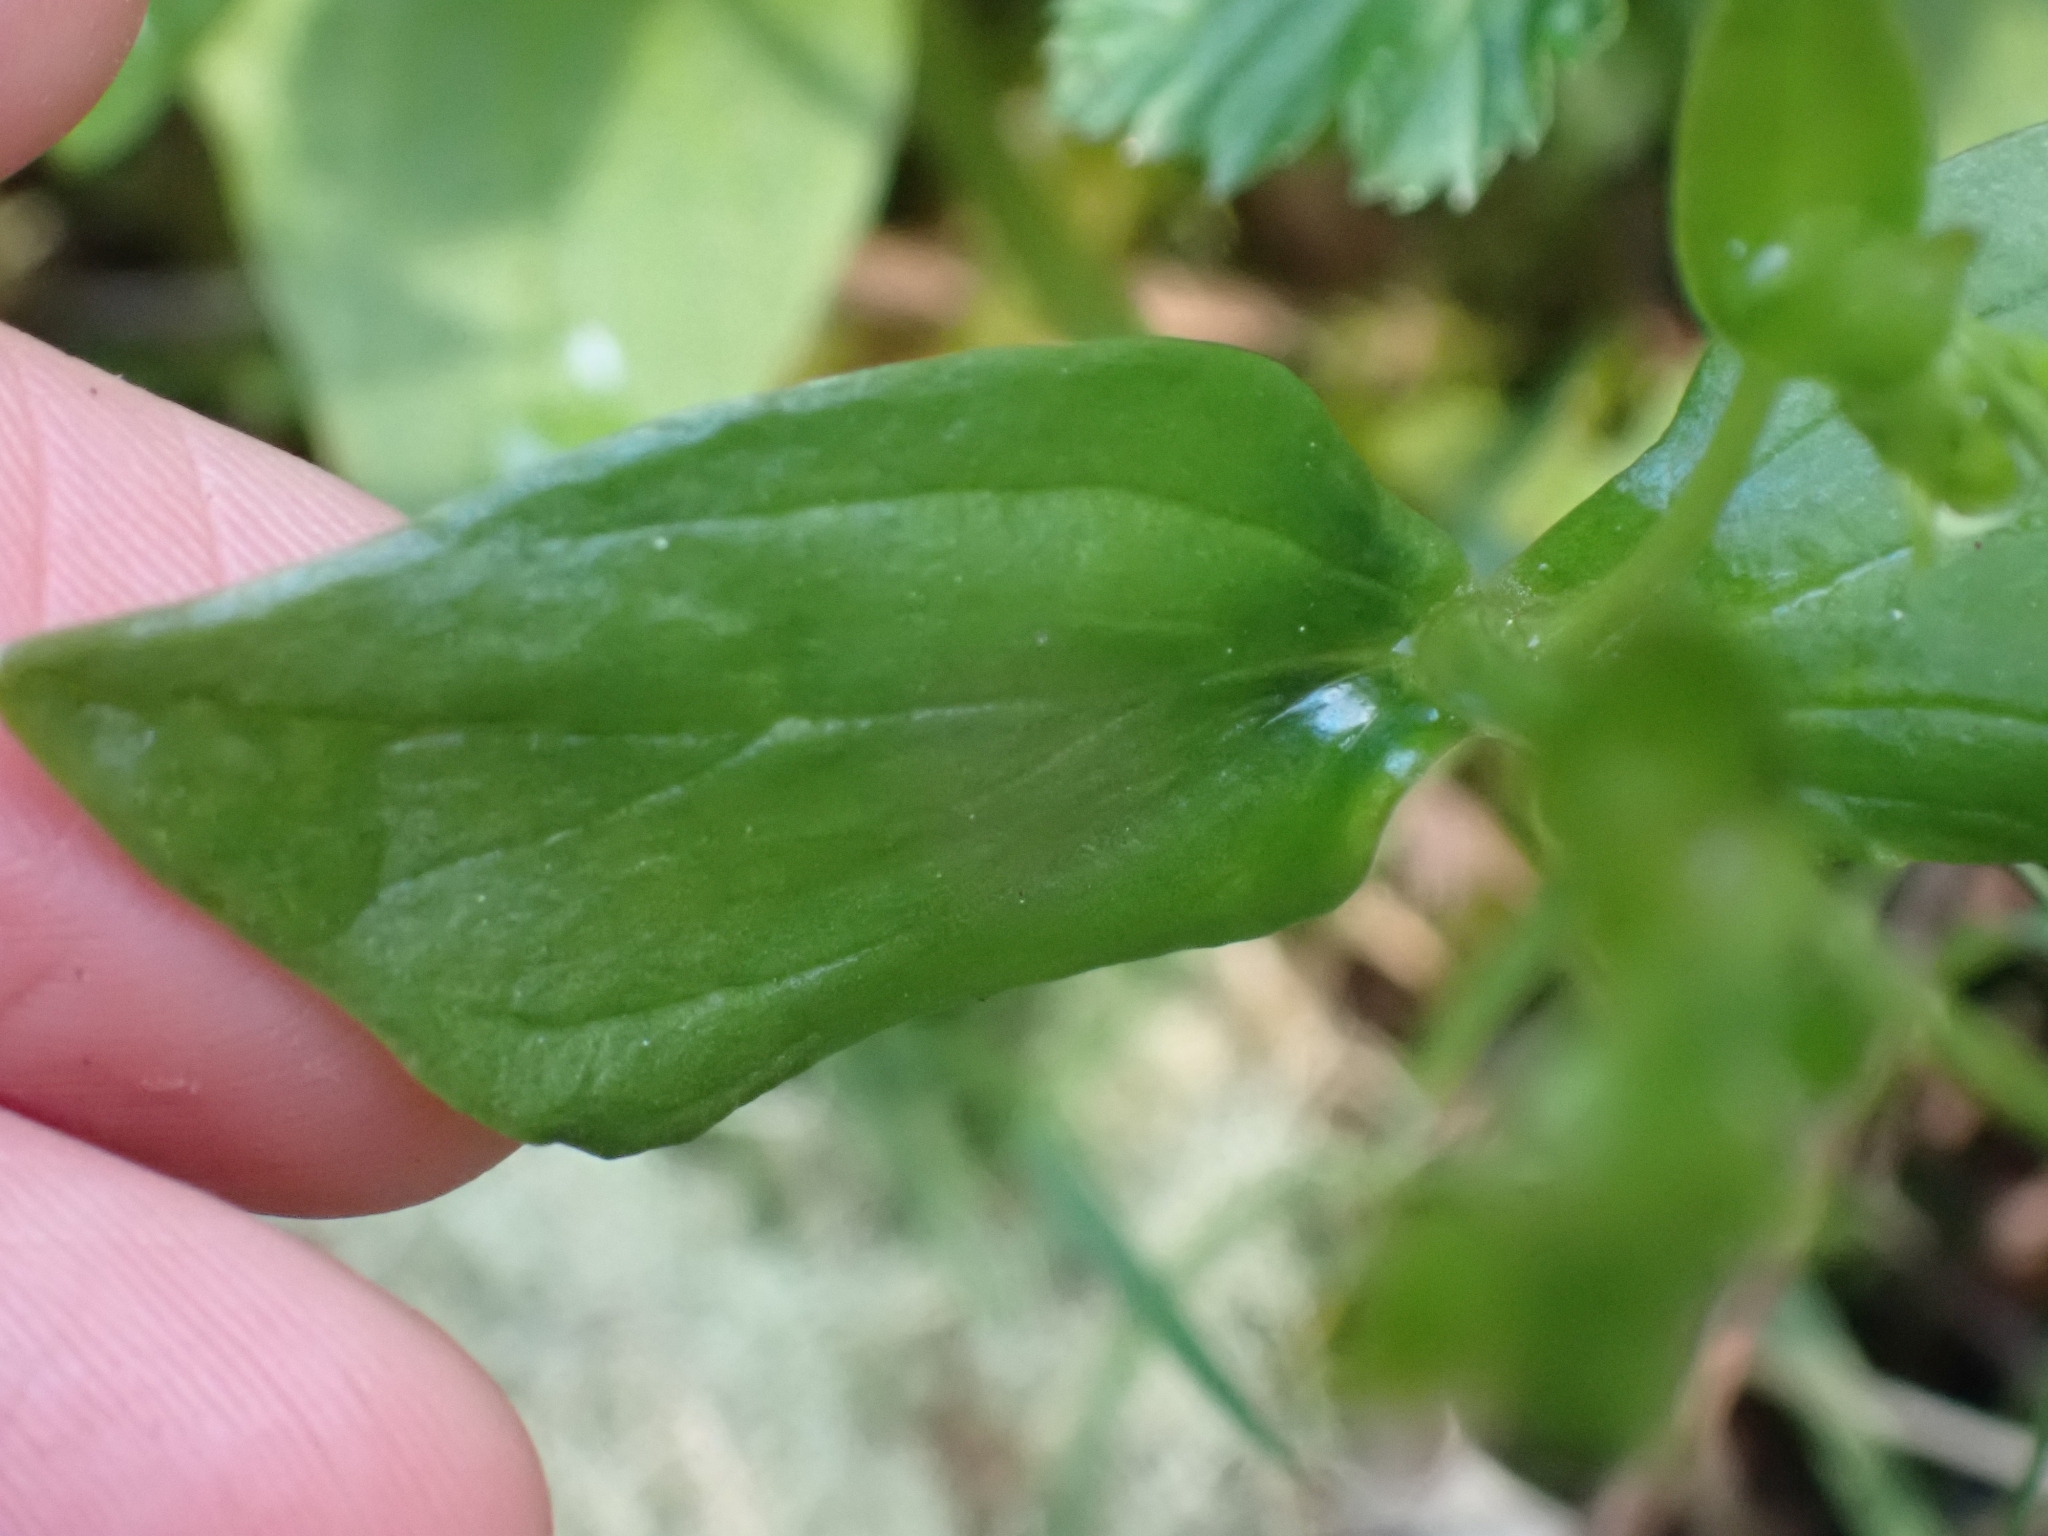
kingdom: Plantae
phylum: Tracheophyta
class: Magnoliopsida
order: Caryophyllales
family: Montiaceae
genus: Claytonia
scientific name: Claytonia sibirica
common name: Pink purslane
